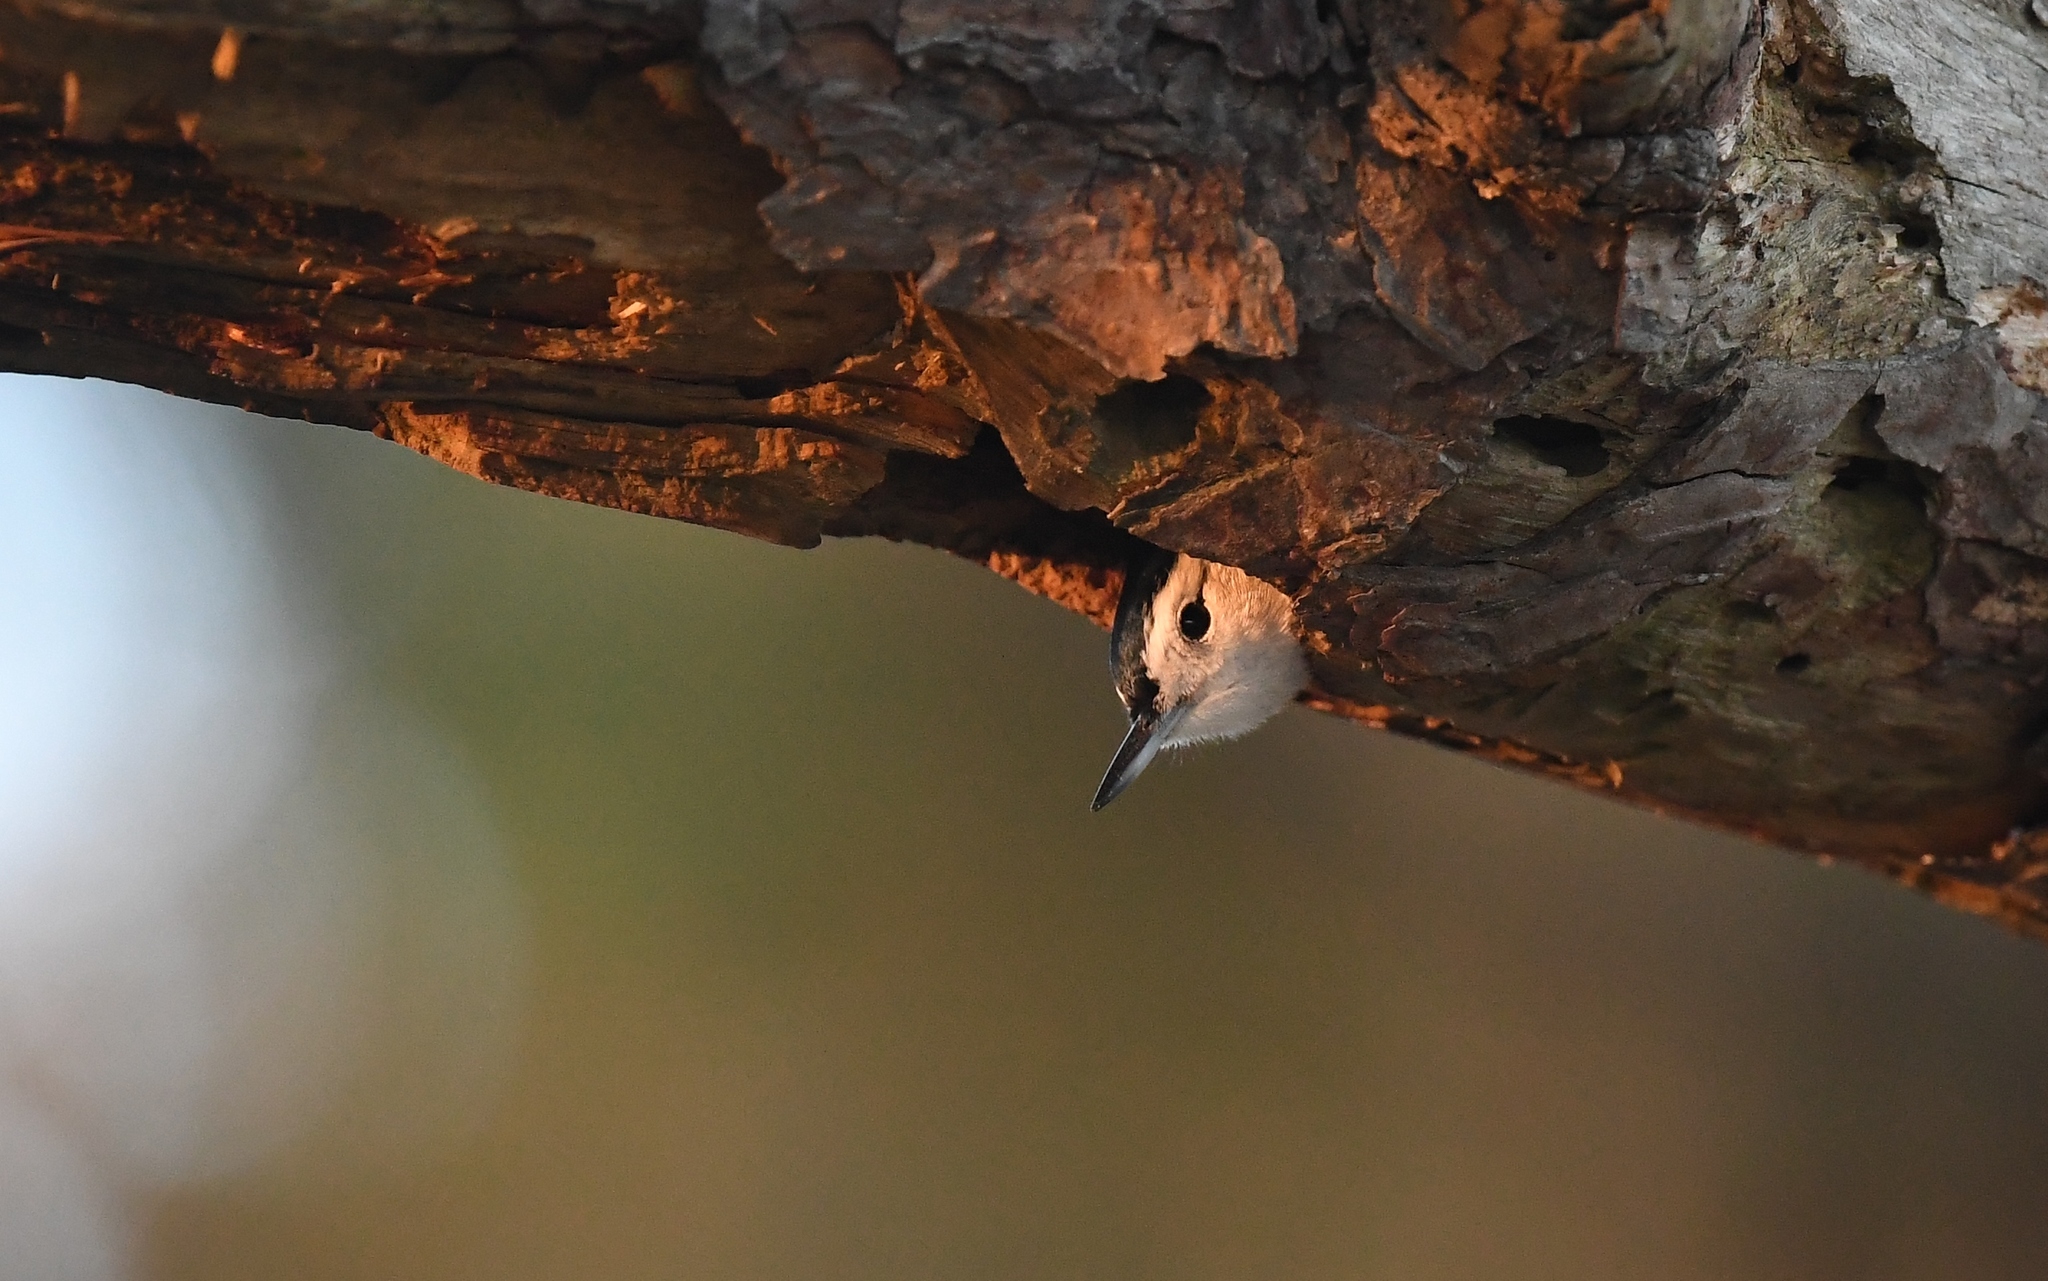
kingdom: Animalia
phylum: Chordata
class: Aves
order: Passeriformes
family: Sittidae
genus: Sitta
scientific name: Sitta carolinensis
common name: White-breasted nuthatch
